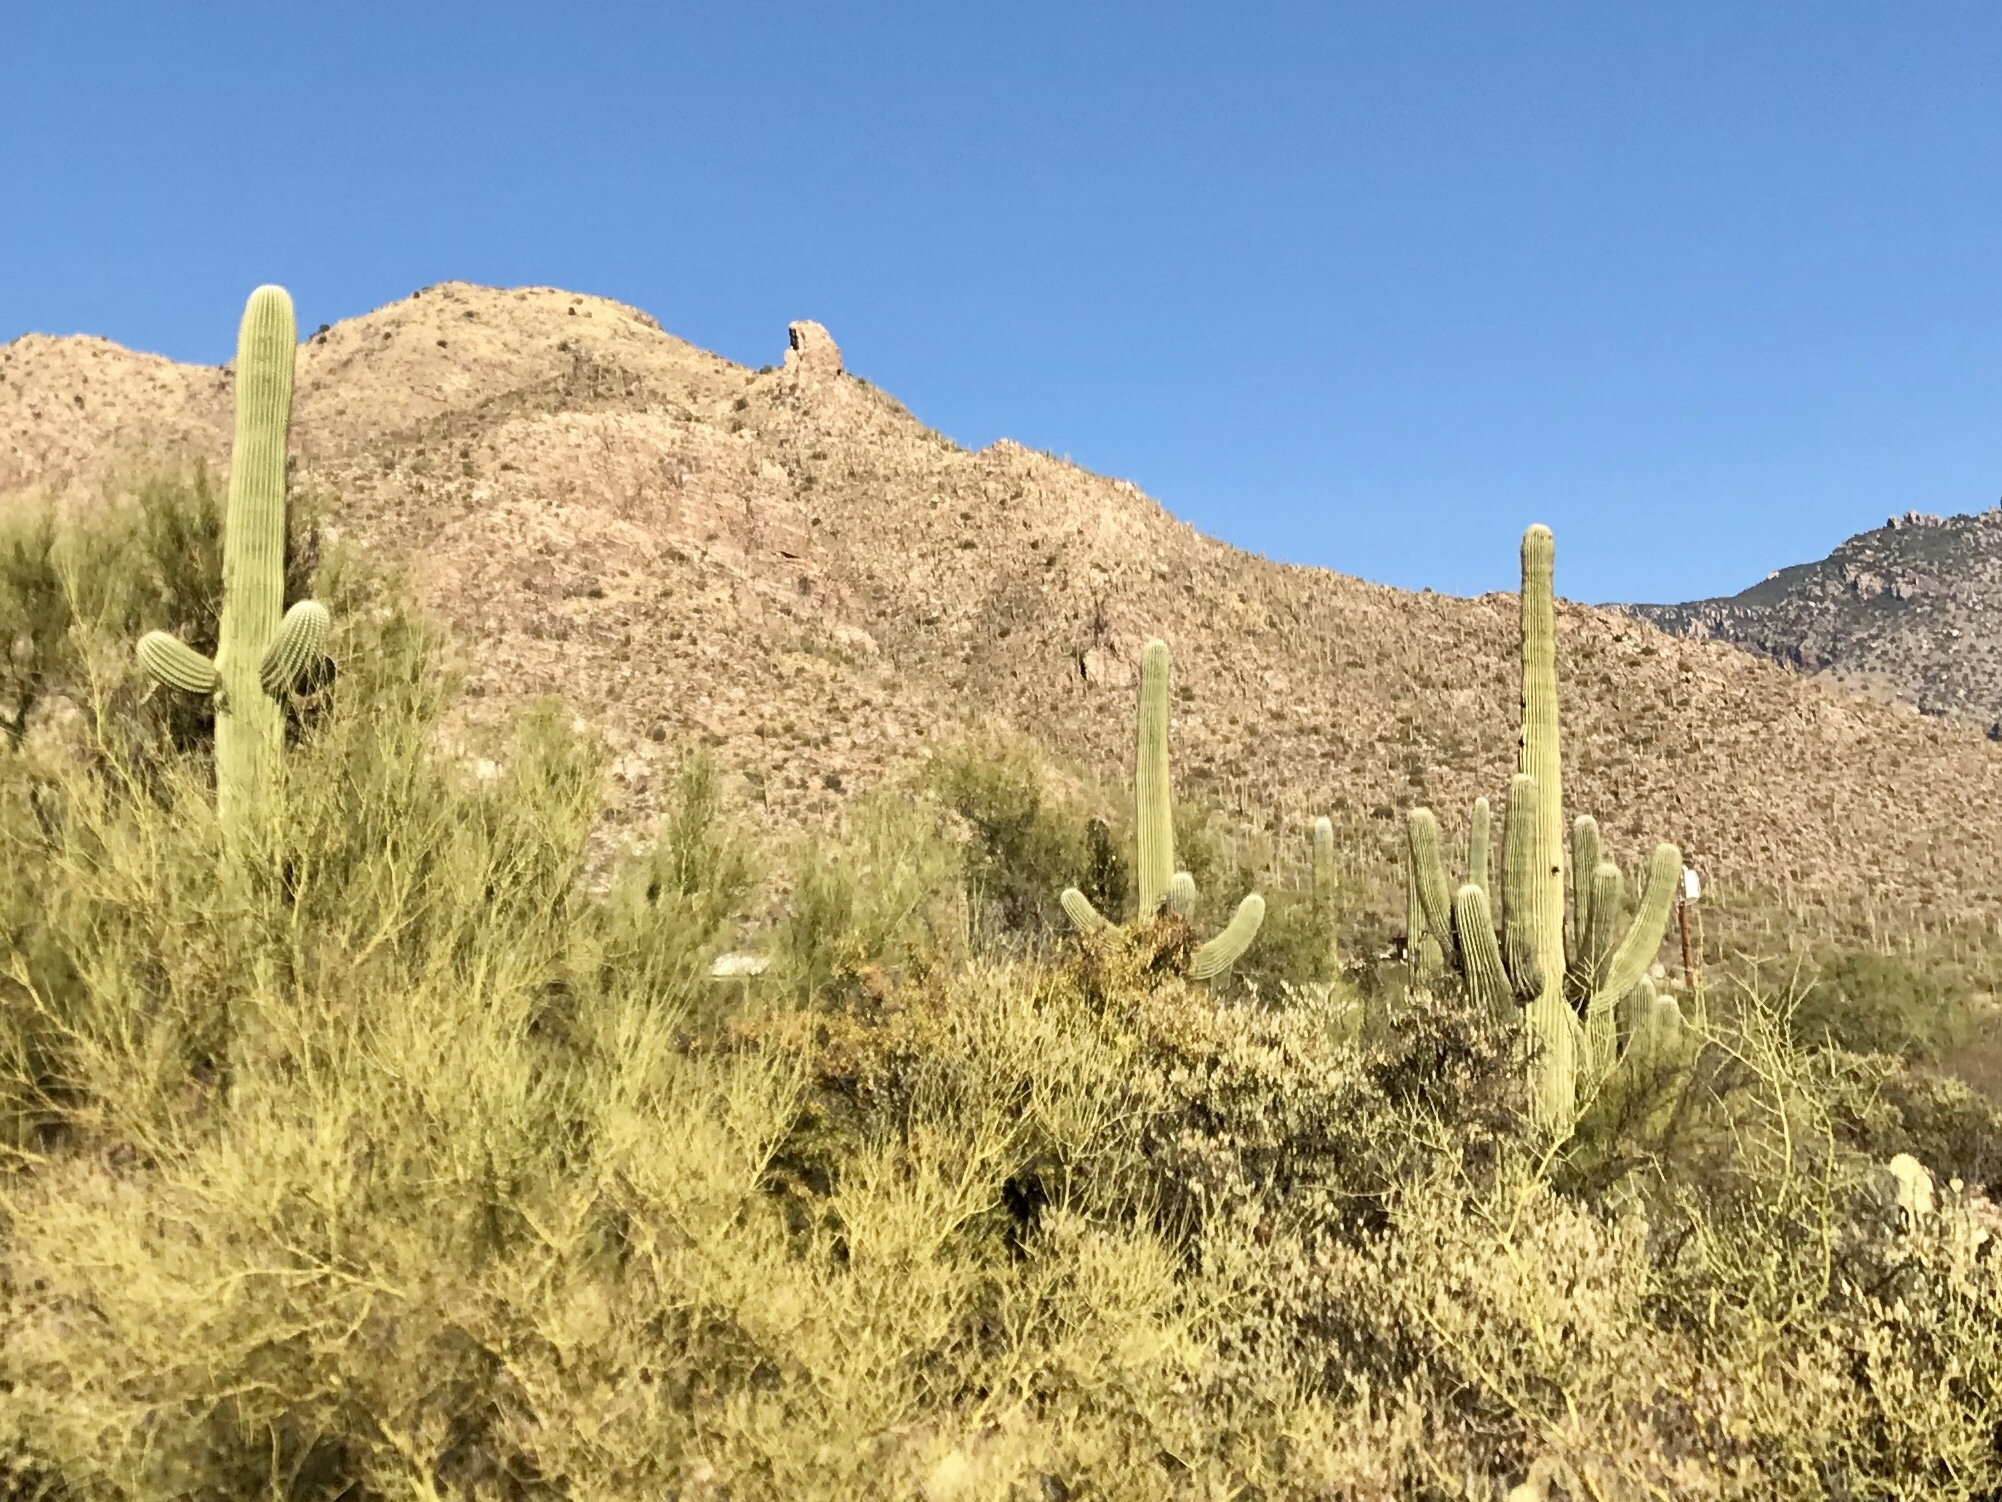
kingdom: Plantae
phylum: Tracheophyta
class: Magnoliopsida
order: Caryophyllales
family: Cactaceae
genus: Carnegiea
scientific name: Carnegiea gigantea
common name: Saguaro
